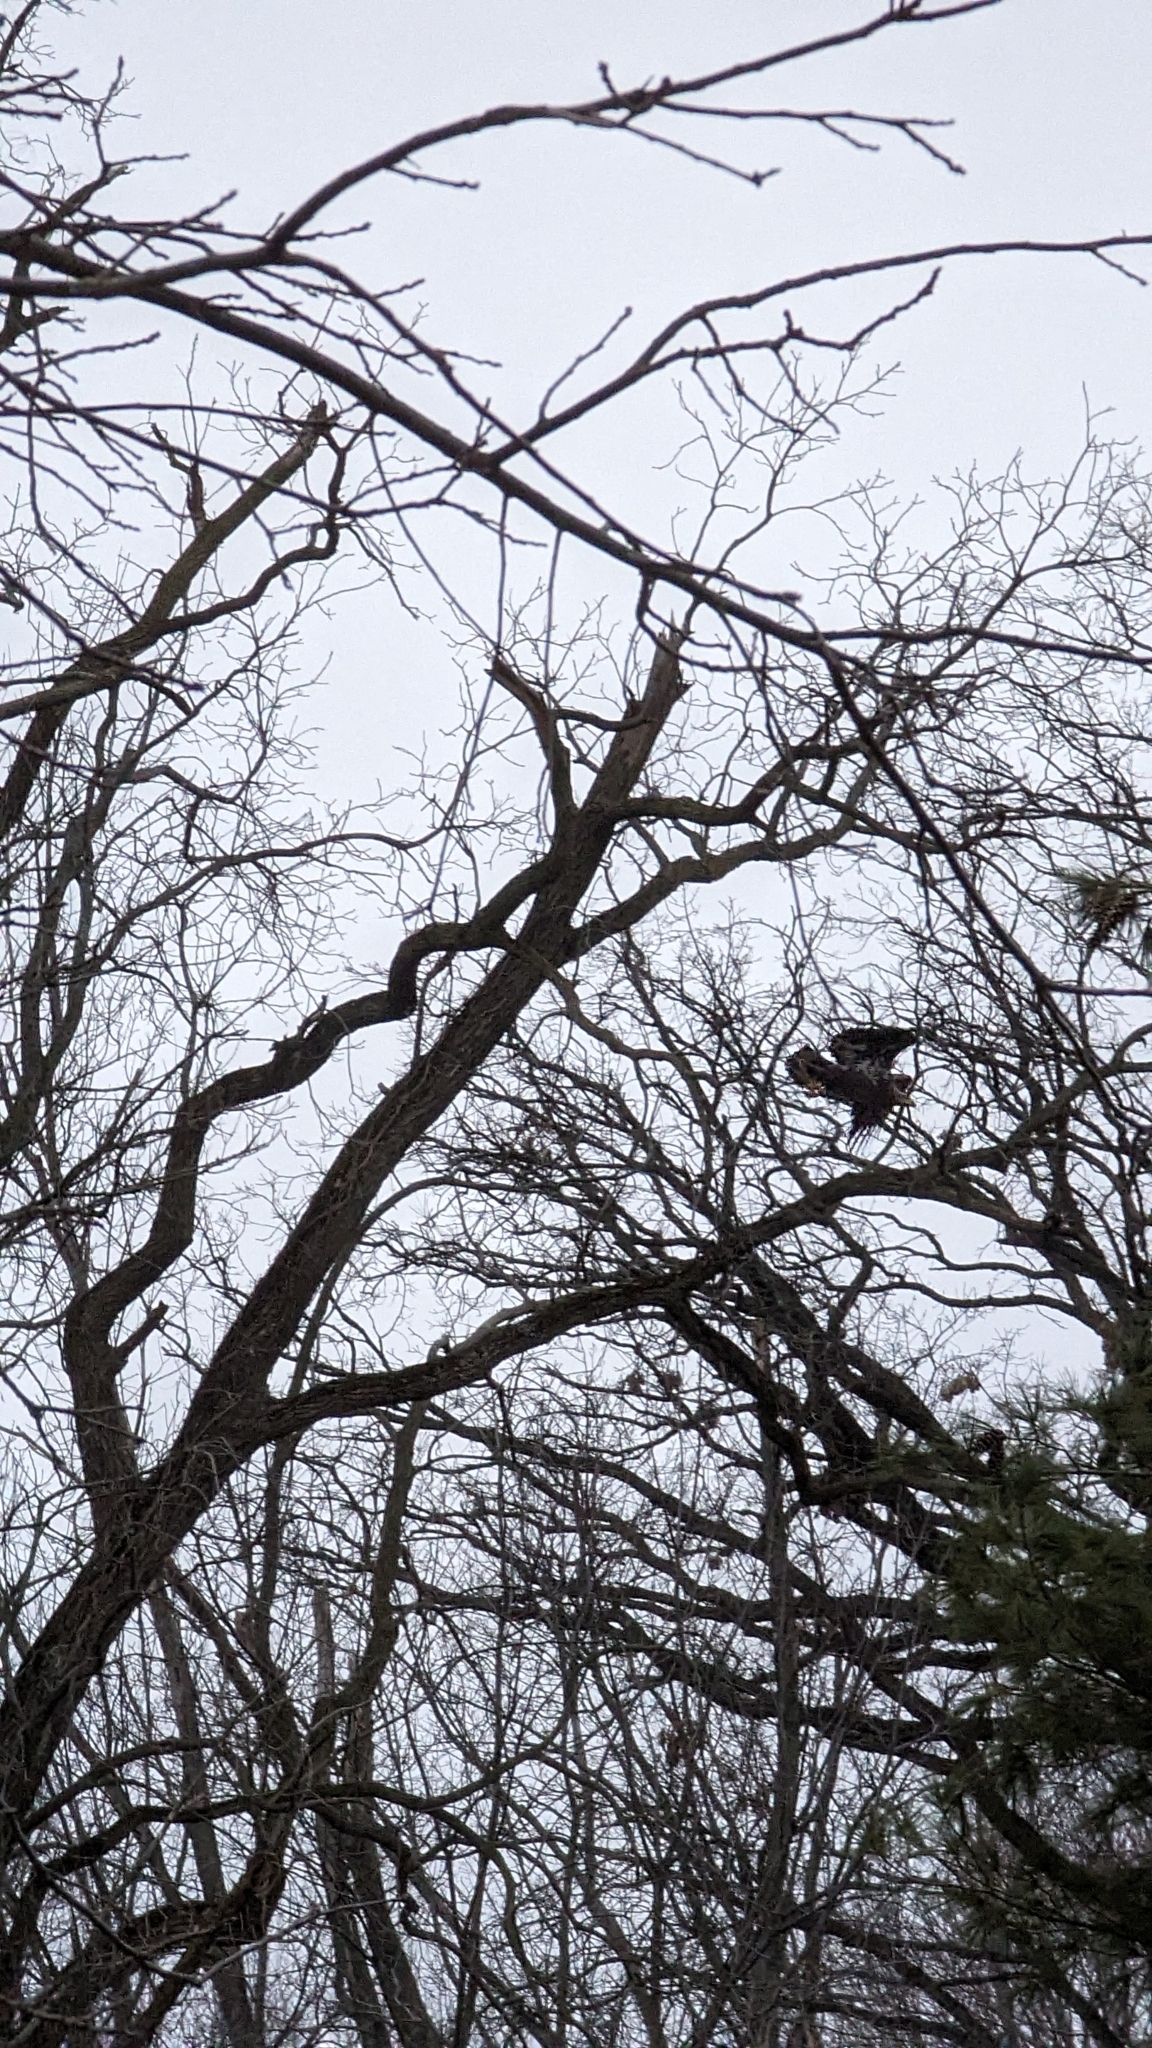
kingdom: Animalia
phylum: Chordata
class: Aves
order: Accipitriformes
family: Accipitridae
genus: Haliaeetus
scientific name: Haliaeetus leucocephalus
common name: Bald eagle
